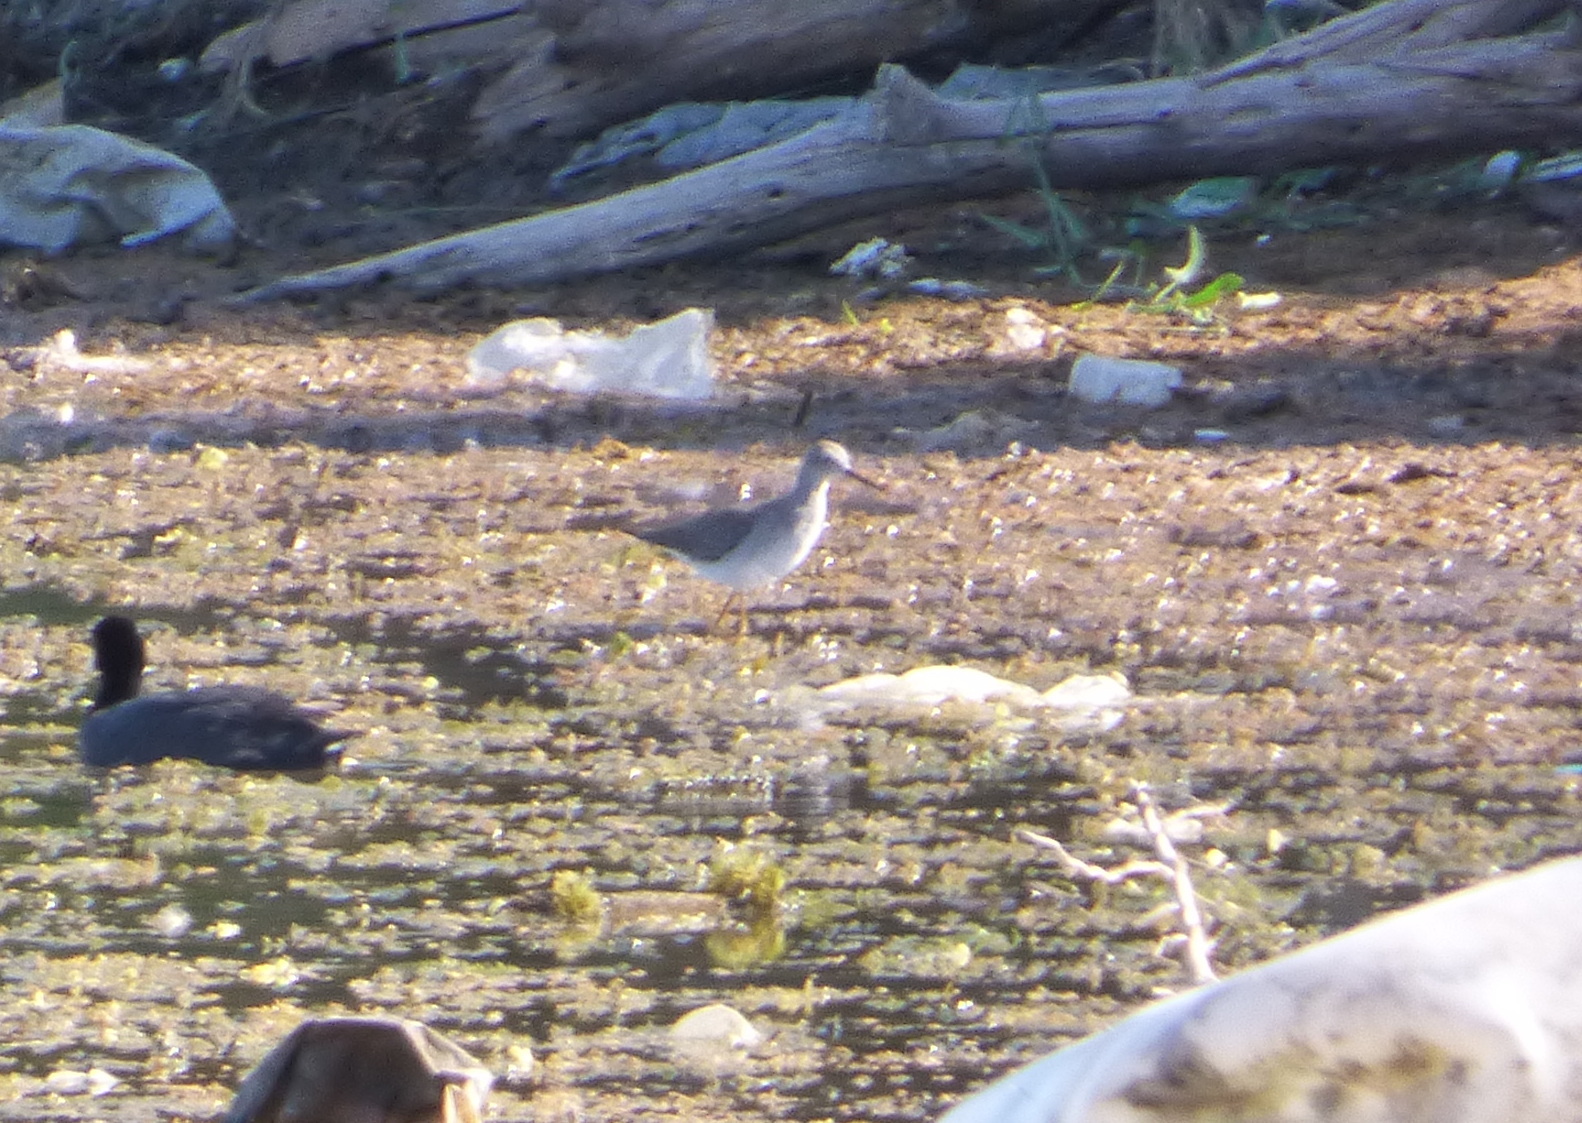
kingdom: Animalia
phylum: Chordata
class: Aves
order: Charadriiformes
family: Scolopacidae
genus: Tringa
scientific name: Tringa flavipes
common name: Lesser yellowlegs
